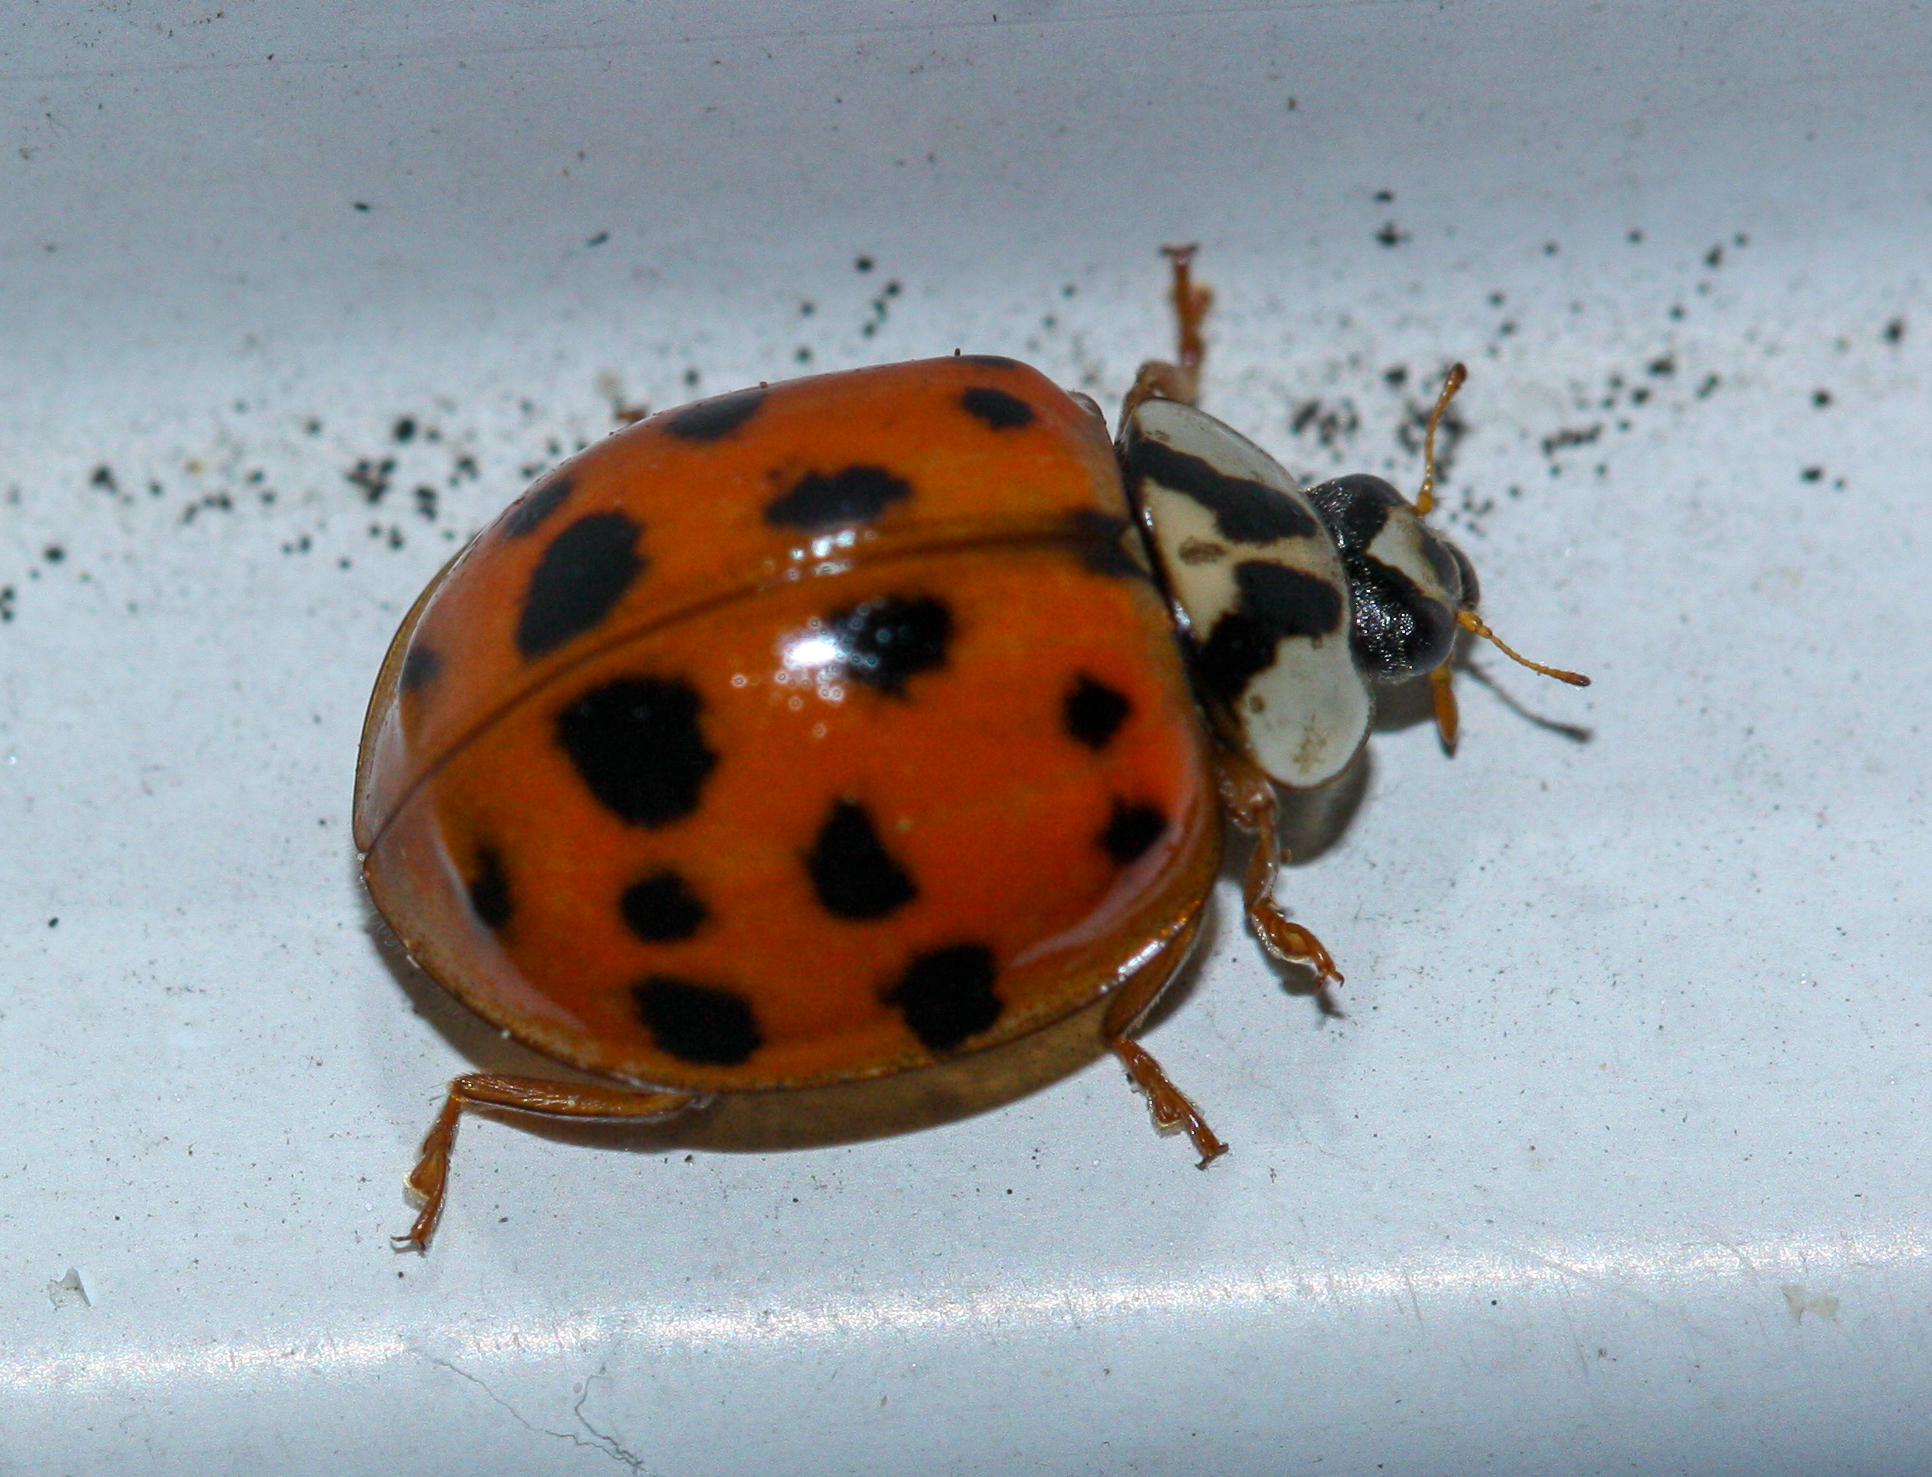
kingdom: Animalia
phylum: Arthropoda
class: Insecta
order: Coleoptera
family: Coccinellidae
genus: Harmonia
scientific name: Harmonia axyridis
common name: Harlequin ladybird
